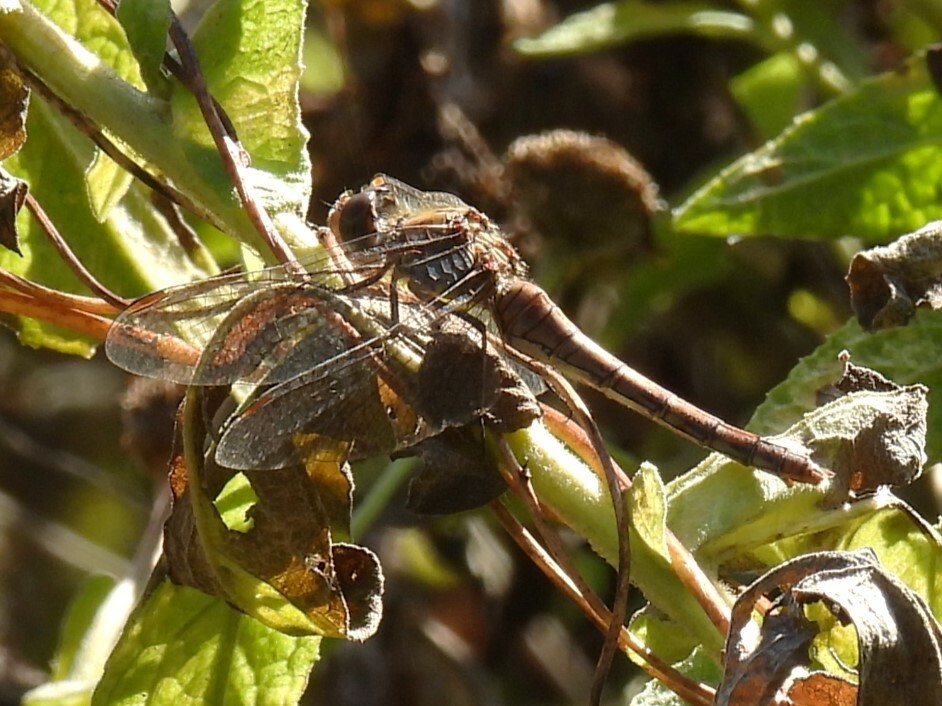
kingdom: Animalia
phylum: Arthropoda
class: Insecta
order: Odonata
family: Libellulidae
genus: Sympetrum
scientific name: Sympetrum striolatum
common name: Common darter
